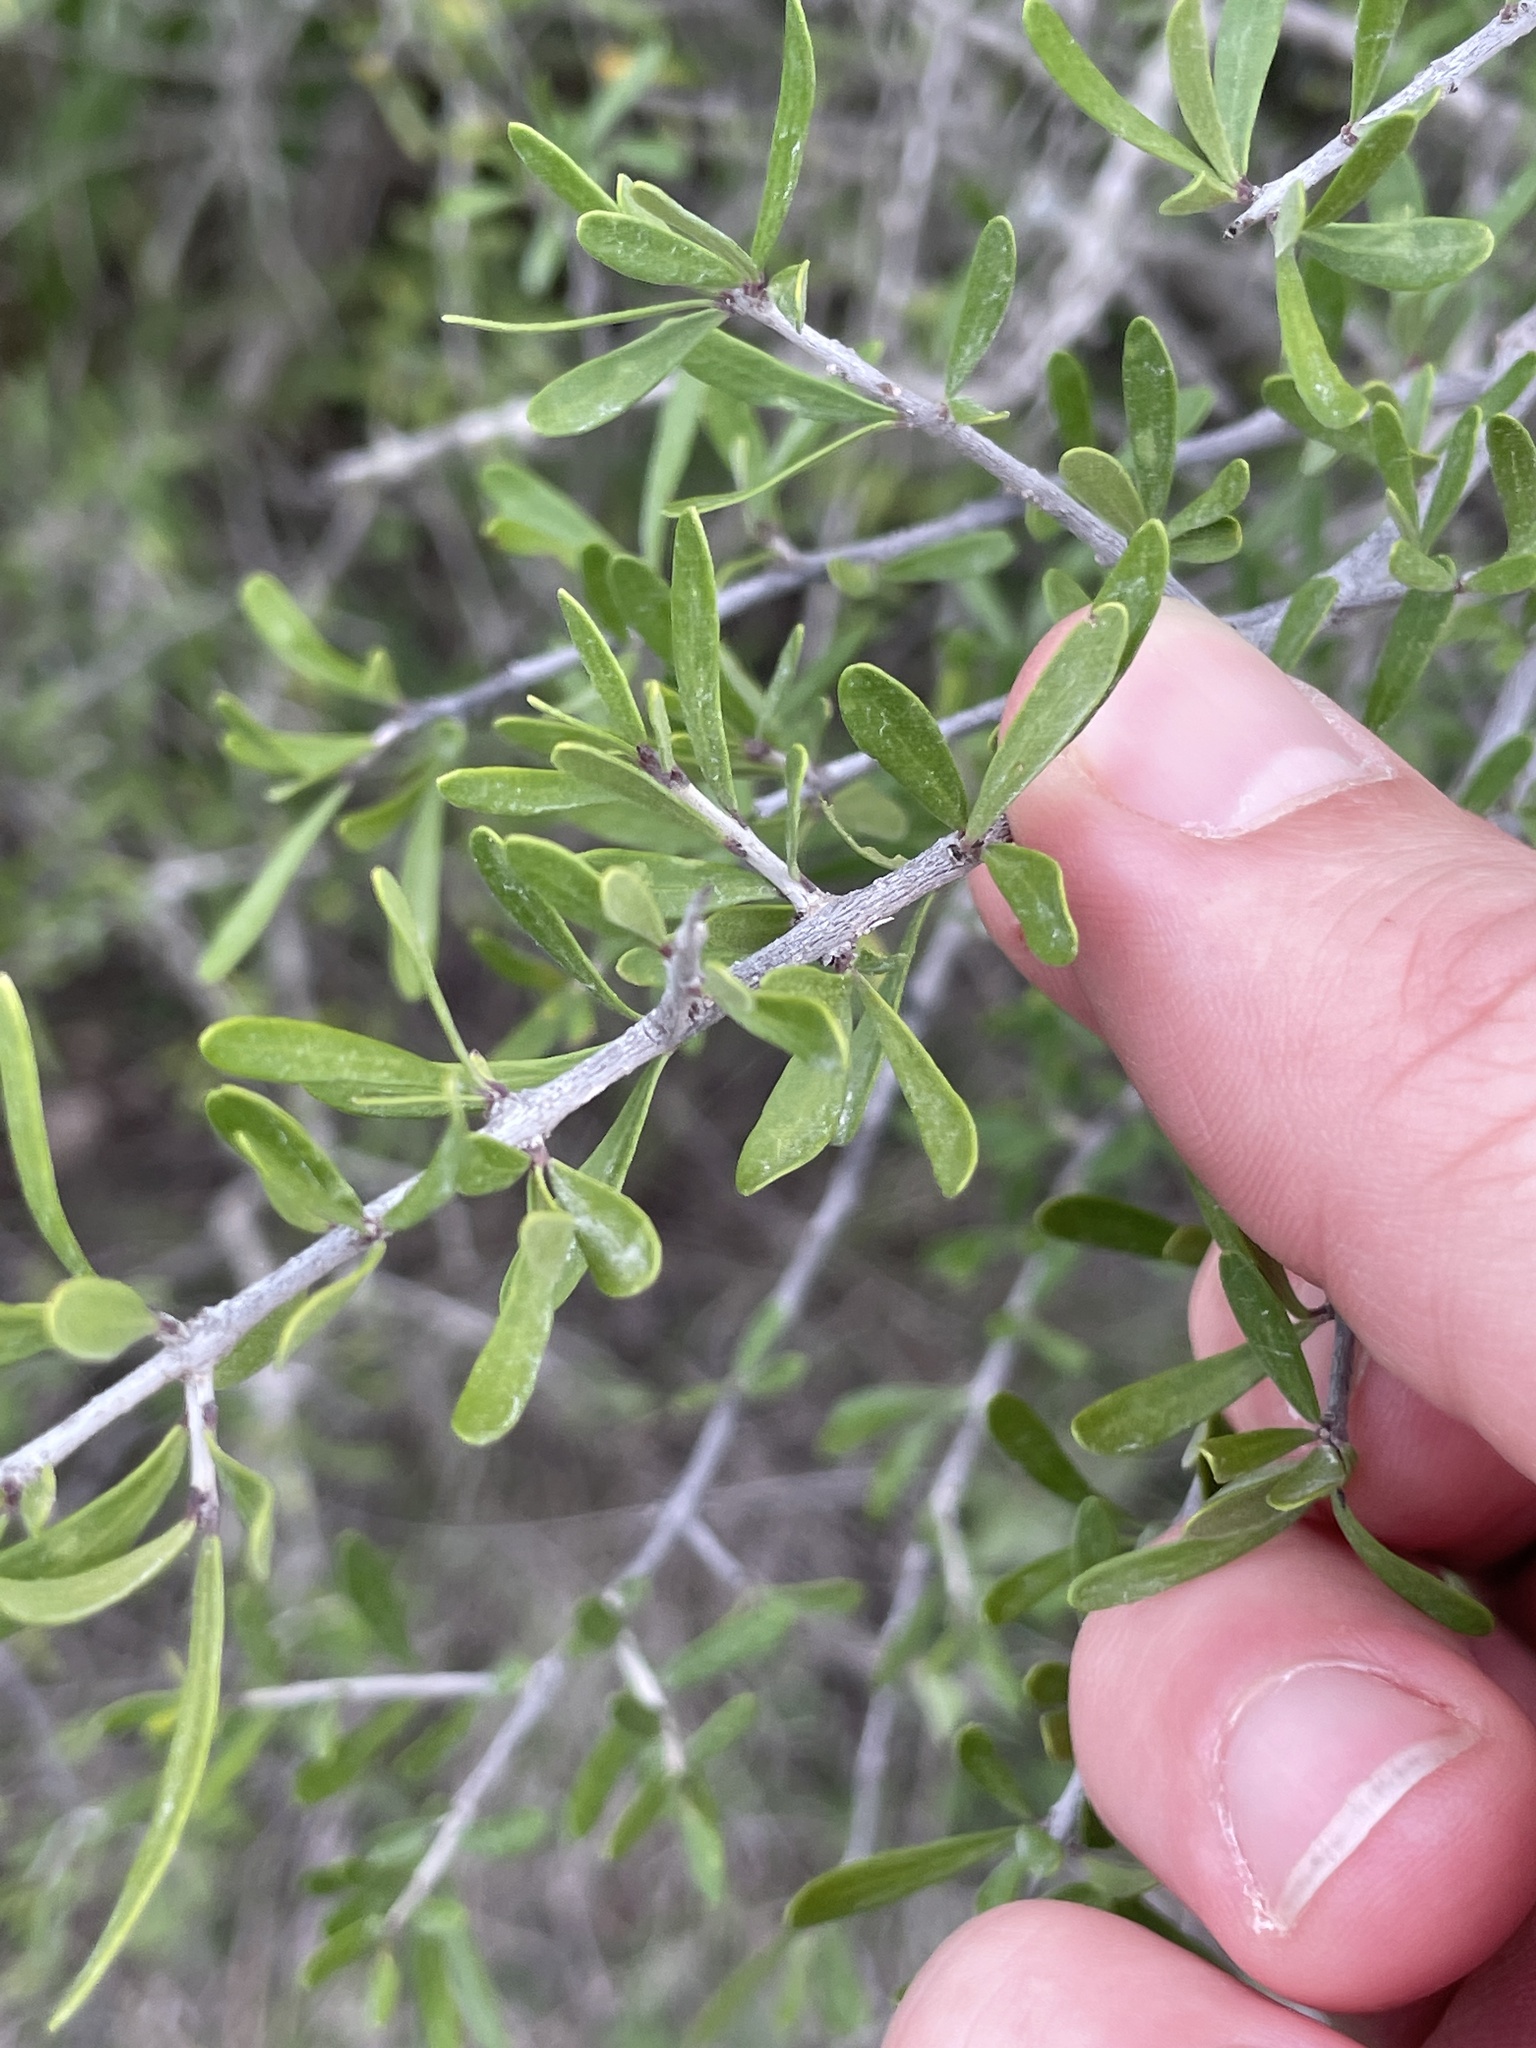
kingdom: Plantae
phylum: Tracheophyta
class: Magnoliopsida
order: Lamiales
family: Oleaceae
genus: Forestiera
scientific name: Forestiera angustifolia
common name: Elbowbush
